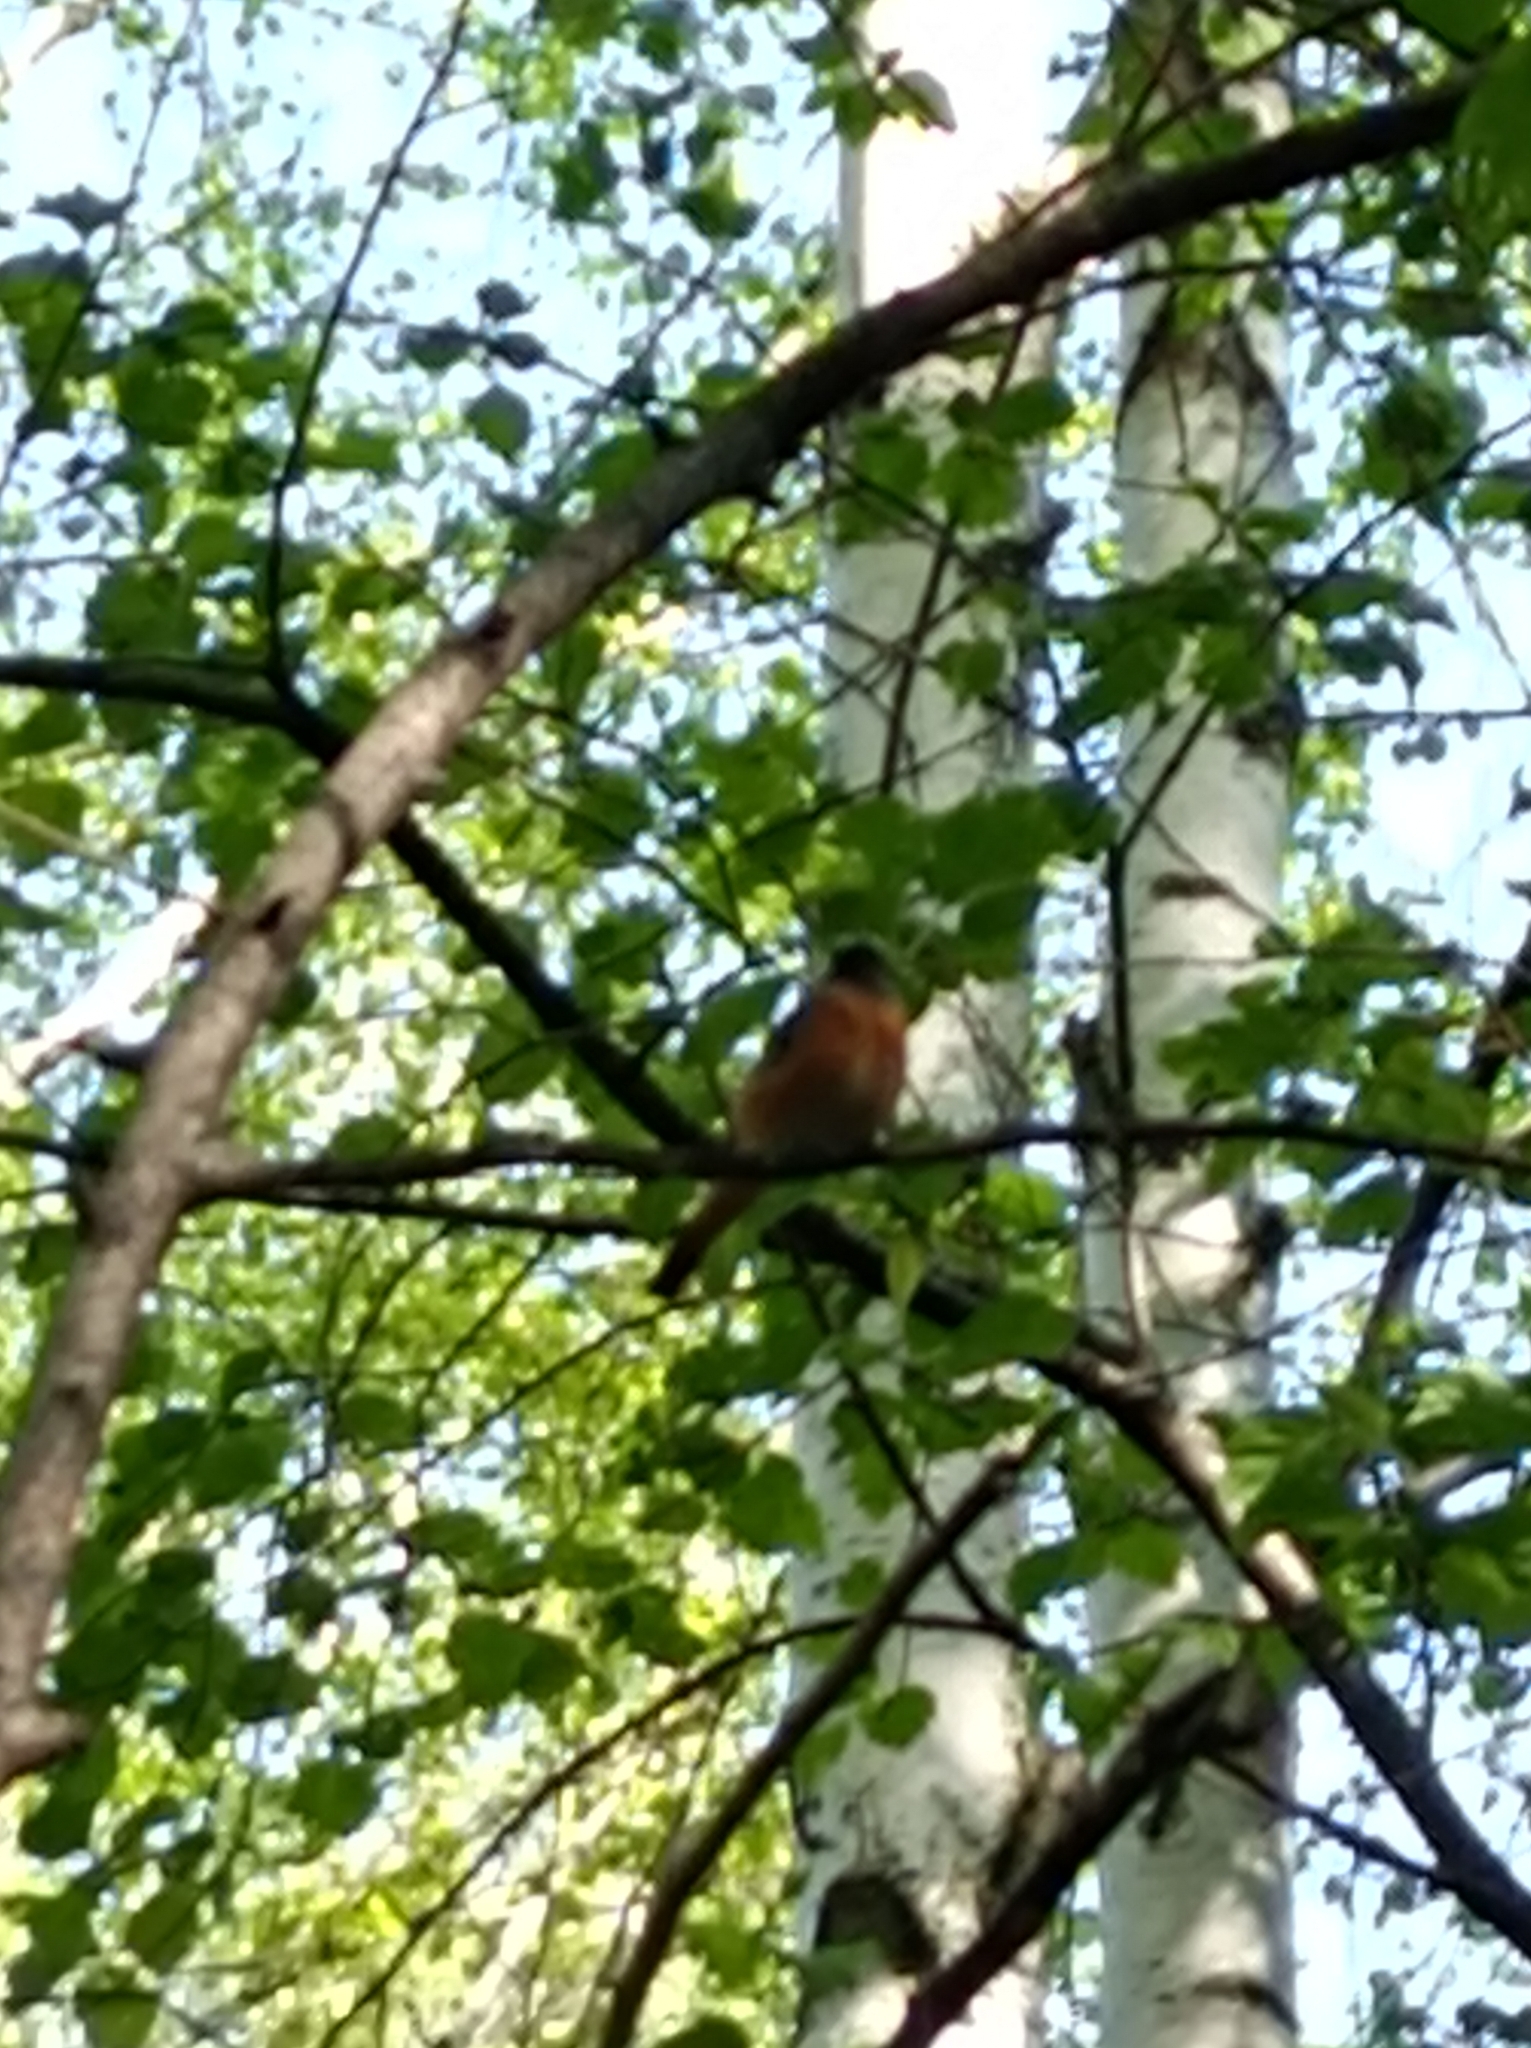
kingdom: Animalia
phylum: Chordata
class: Aves
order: Passeriformes
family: Muscicapidae
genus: Phoenicurus
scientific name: Phoenicurus phoenicurus
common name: Common redstart
